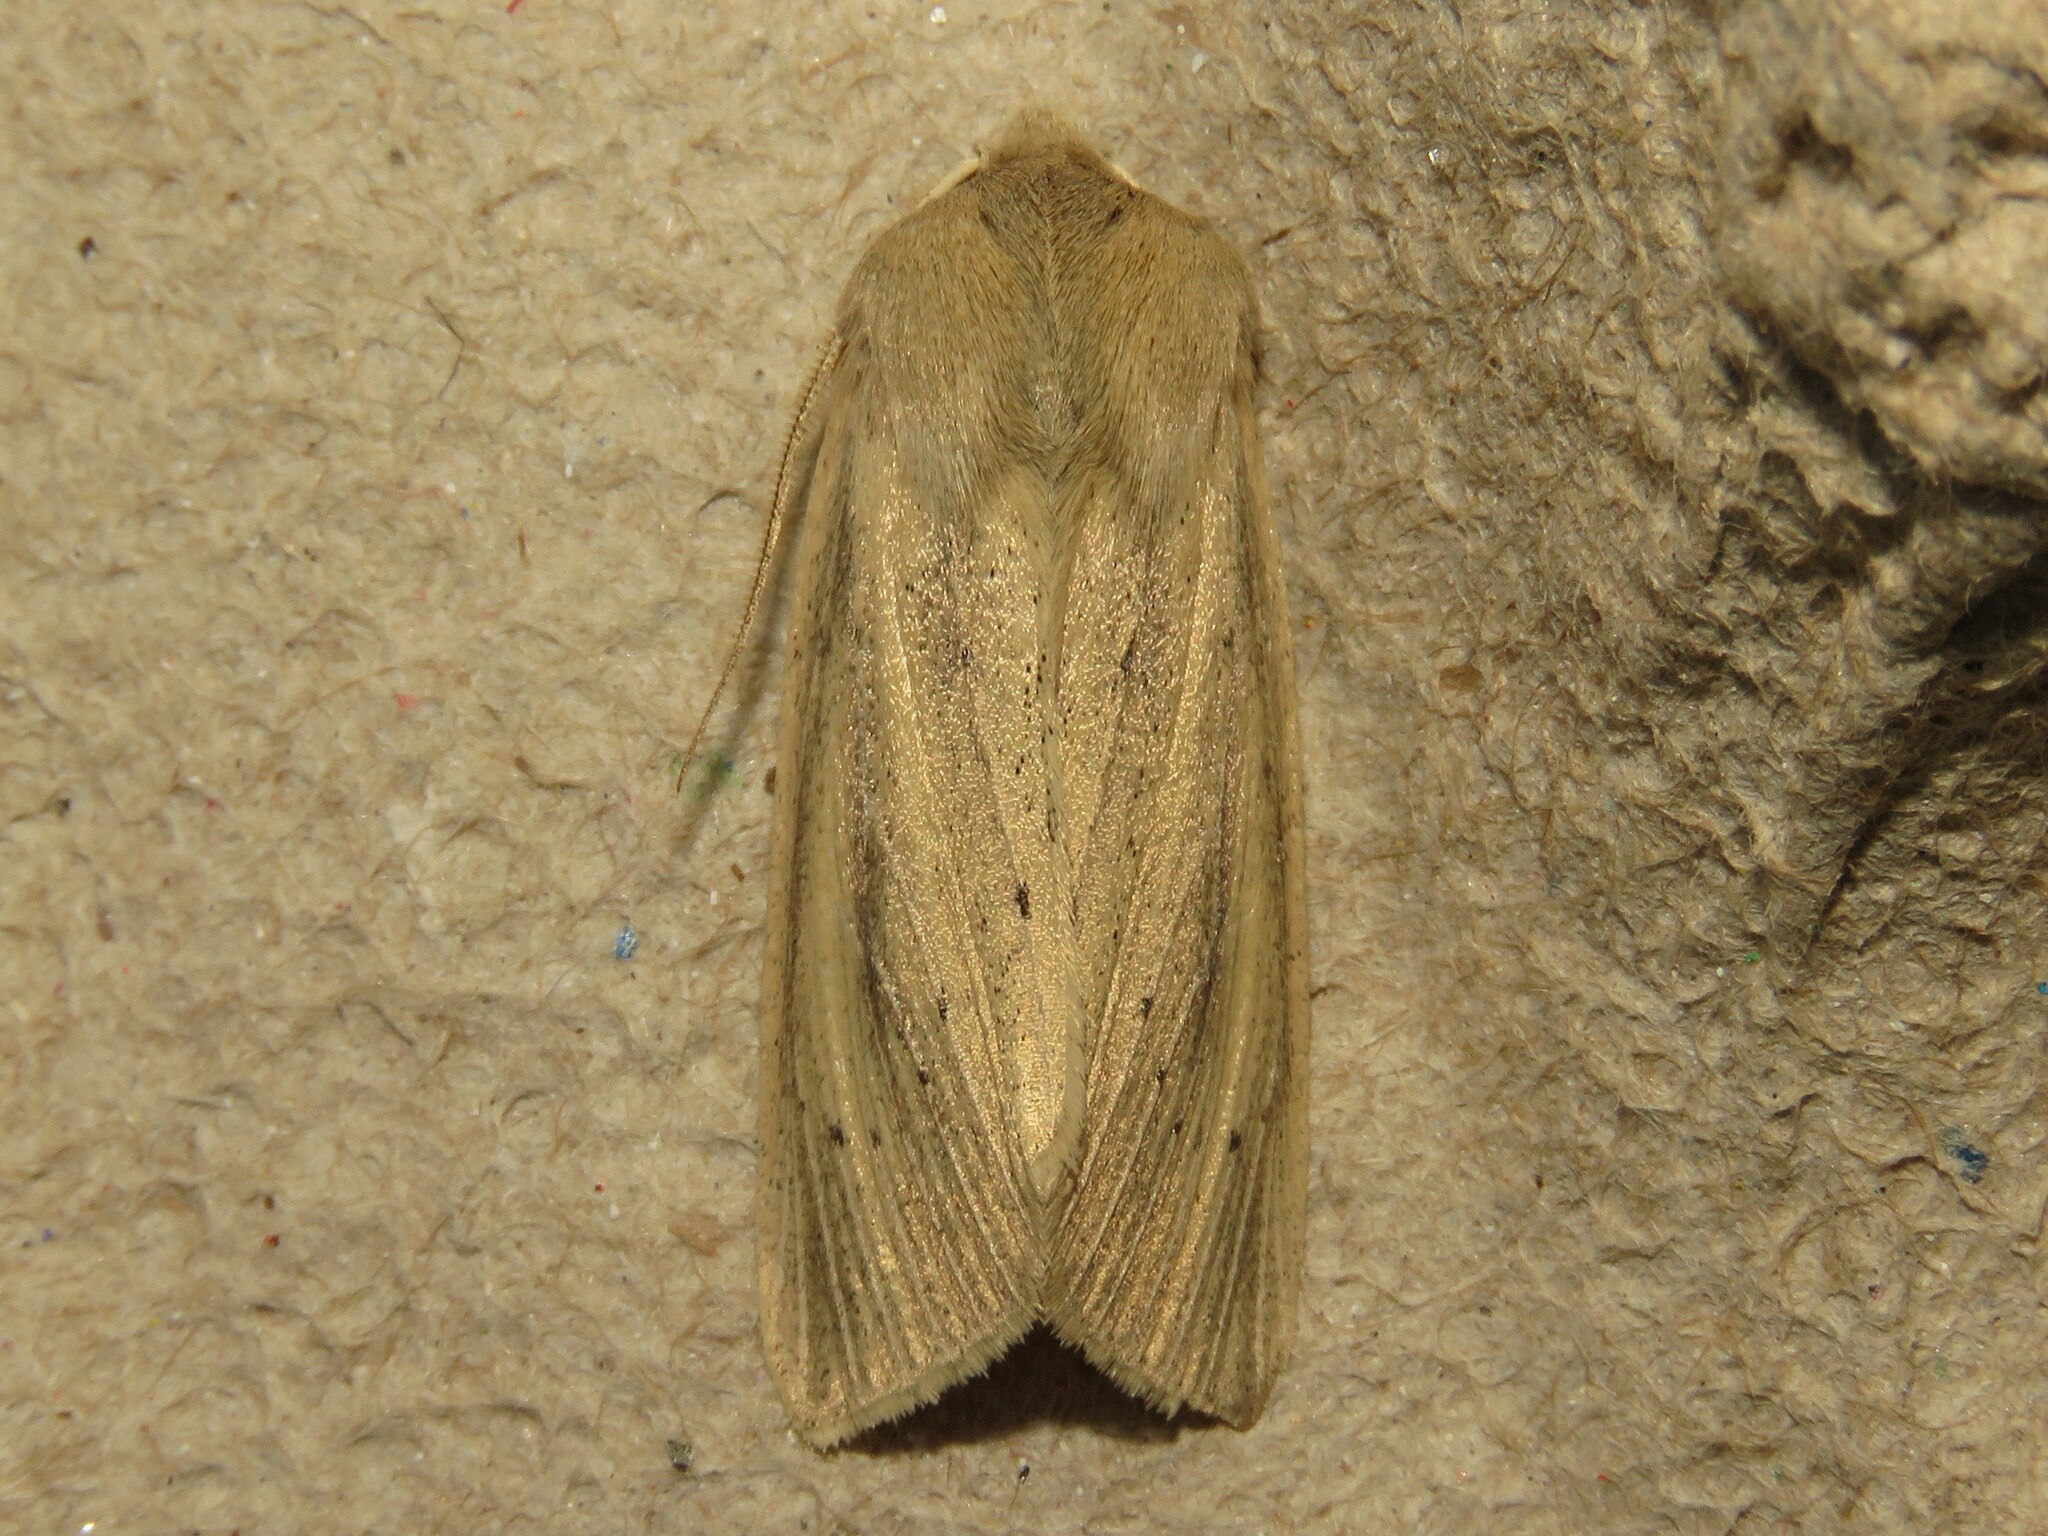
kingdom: Animalia
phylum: Arthropoda
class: Insecta
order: Lepidoptera
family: Noctuidae
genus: Rhizedra
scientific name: Rhizedra lutosa
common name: Large wainscot
